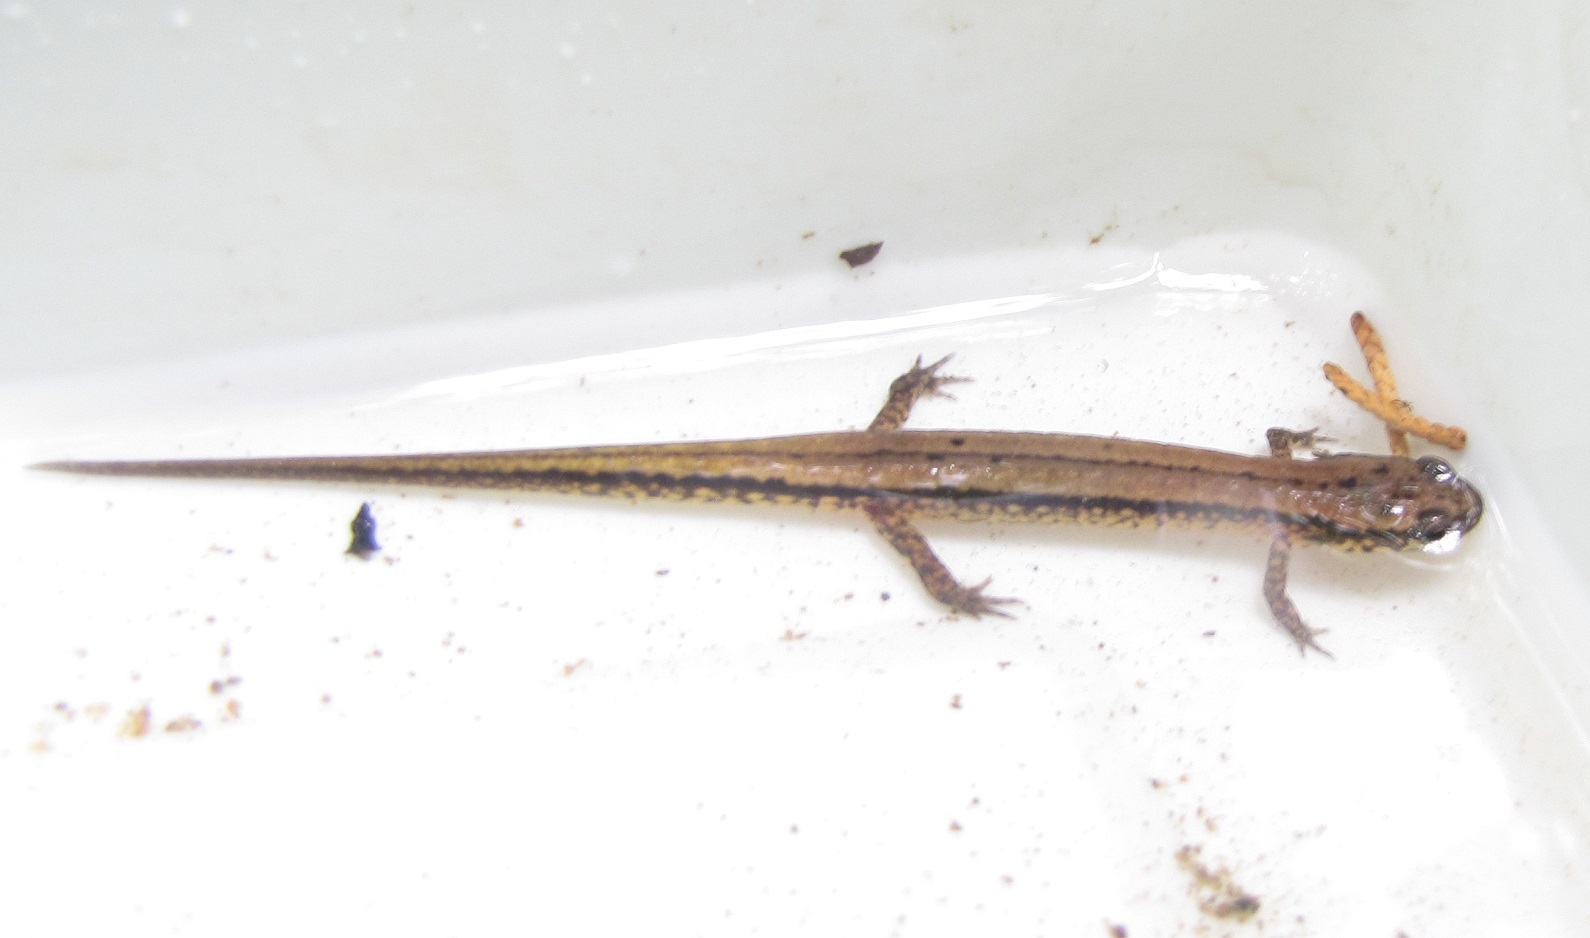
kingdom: Animalia
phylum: Chordata
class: Amphibia
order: Caudata
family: Plethodontidae
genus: Eurycea
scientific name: Eurycea cirrigera
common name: Southern two-lined salamander
